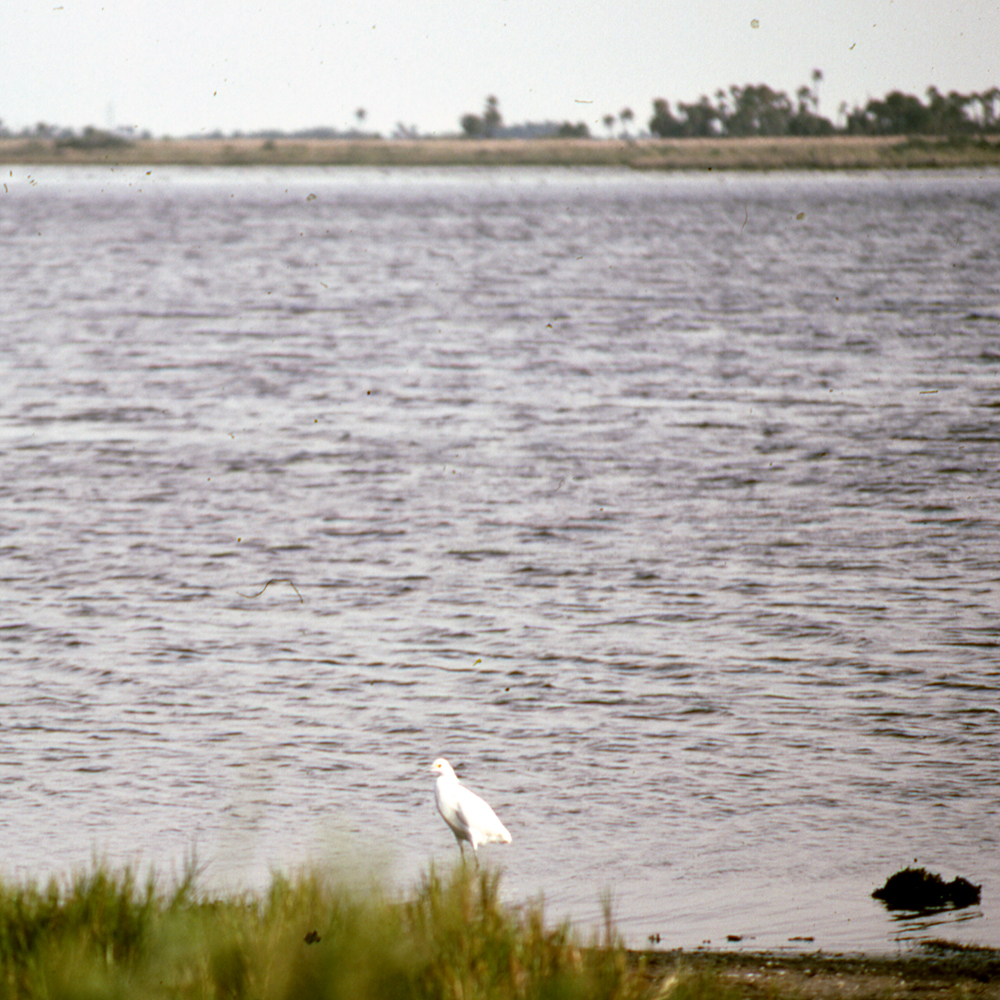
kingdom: Animalia
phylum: Chordata
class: Aves
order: Pelecaniformes
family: Ardeidae
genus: Egretta
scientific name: Egretta thula
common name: Snowy egret
